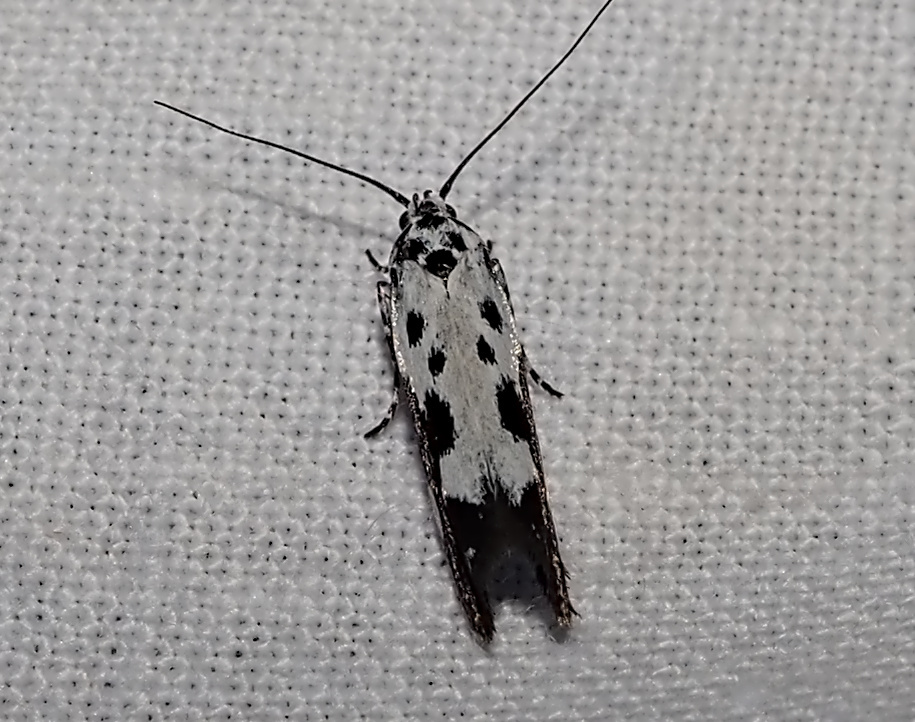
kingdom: Animalia
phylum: Arthropoda
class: Insecta
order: Lepidoptera
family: Ethmiidae
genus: Ethmia
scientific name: Ethmia quadrillella
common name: Comfrey ermel
